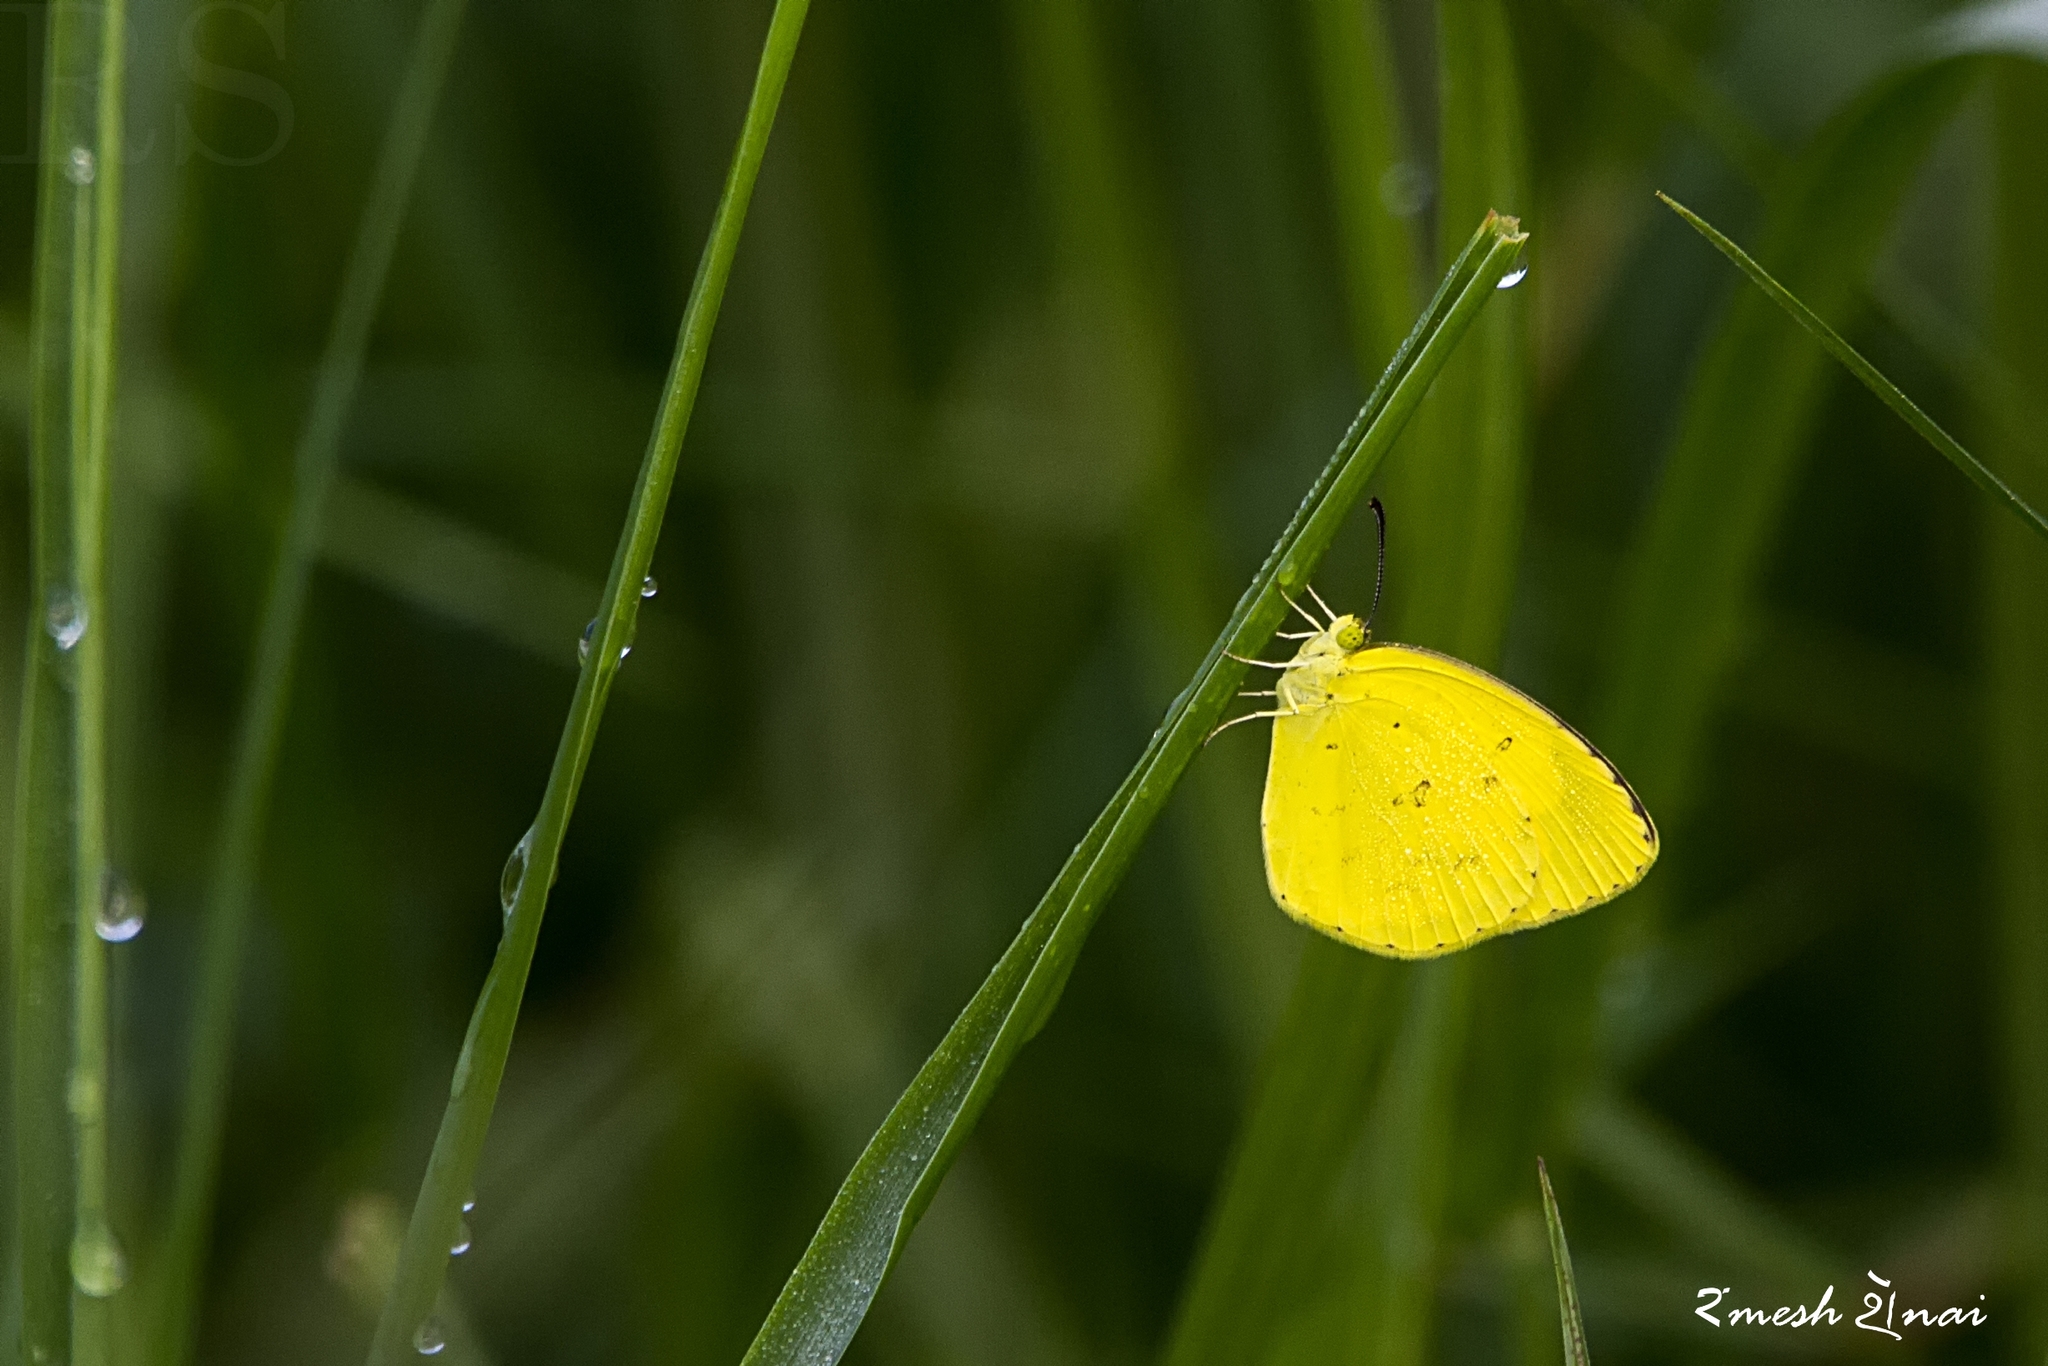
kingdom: Animalia
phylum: Arthropoda
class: Insecta
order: Lepidoptera
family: Pieridae
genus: Eurema
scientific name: Eurema brigitta
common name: Small grass yellow
